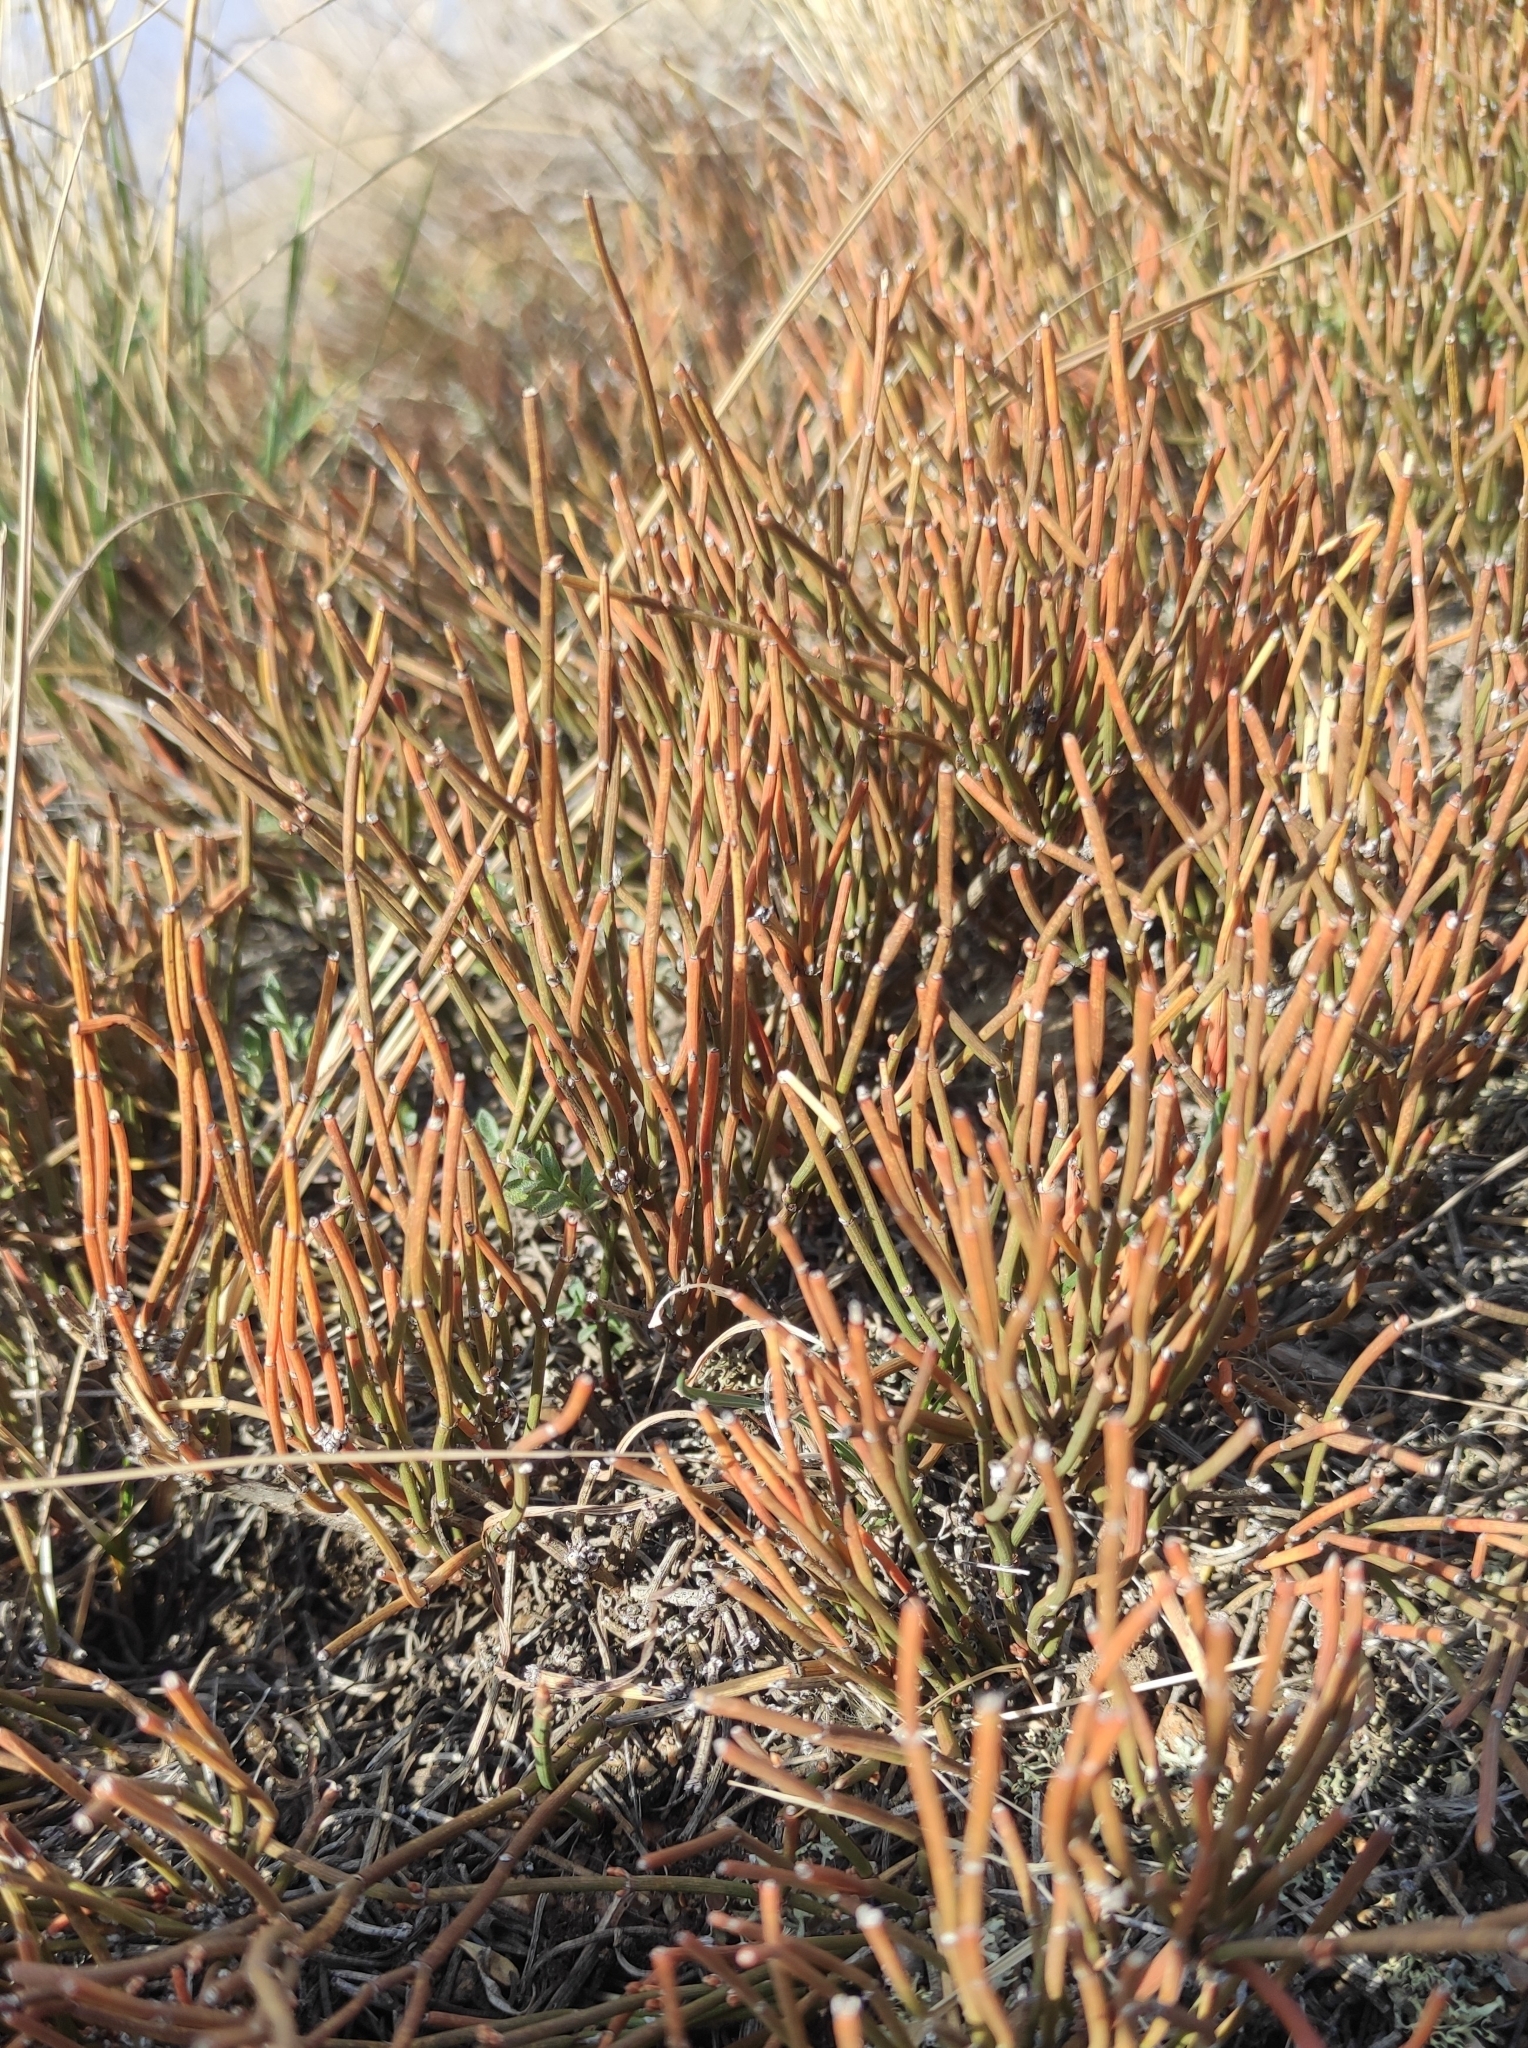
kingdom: Plantae
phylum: Tracheophyta
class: Gnetopsida
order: Ephedrales
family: Ephedraceae
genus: Ephedra
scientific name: Ephedra monosperma
